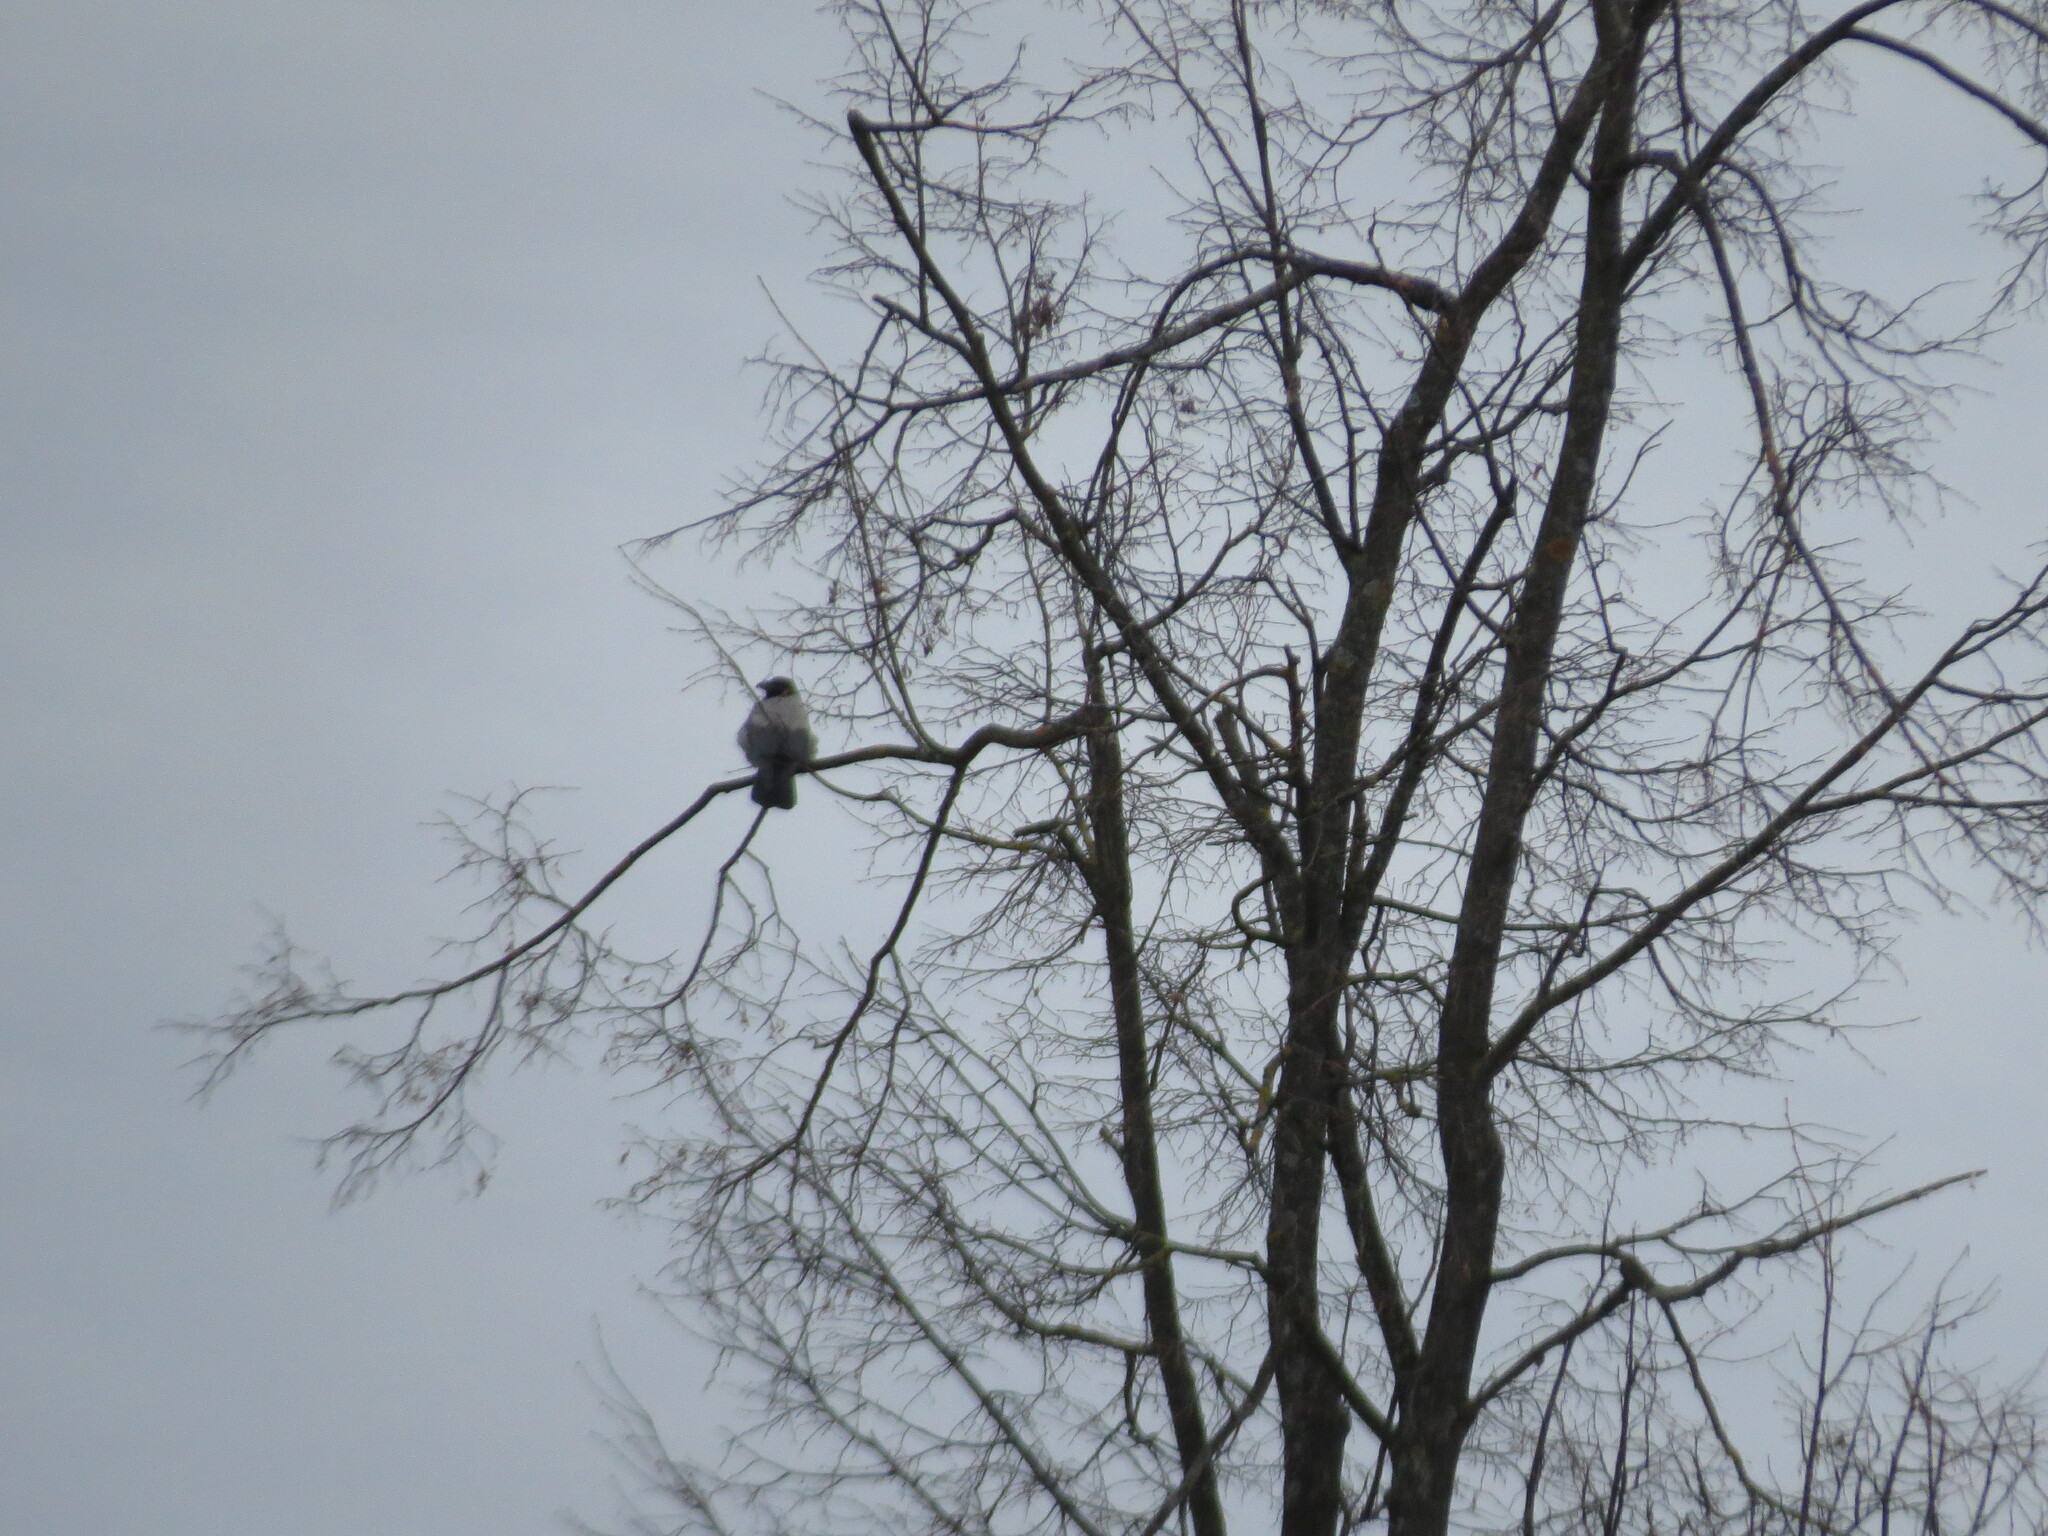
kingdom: Animalia
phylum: Chordata
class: Aves
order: Passeriformes
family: Corvidae
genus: Corvus
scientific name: Corvus cornix
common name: Hooded crow
